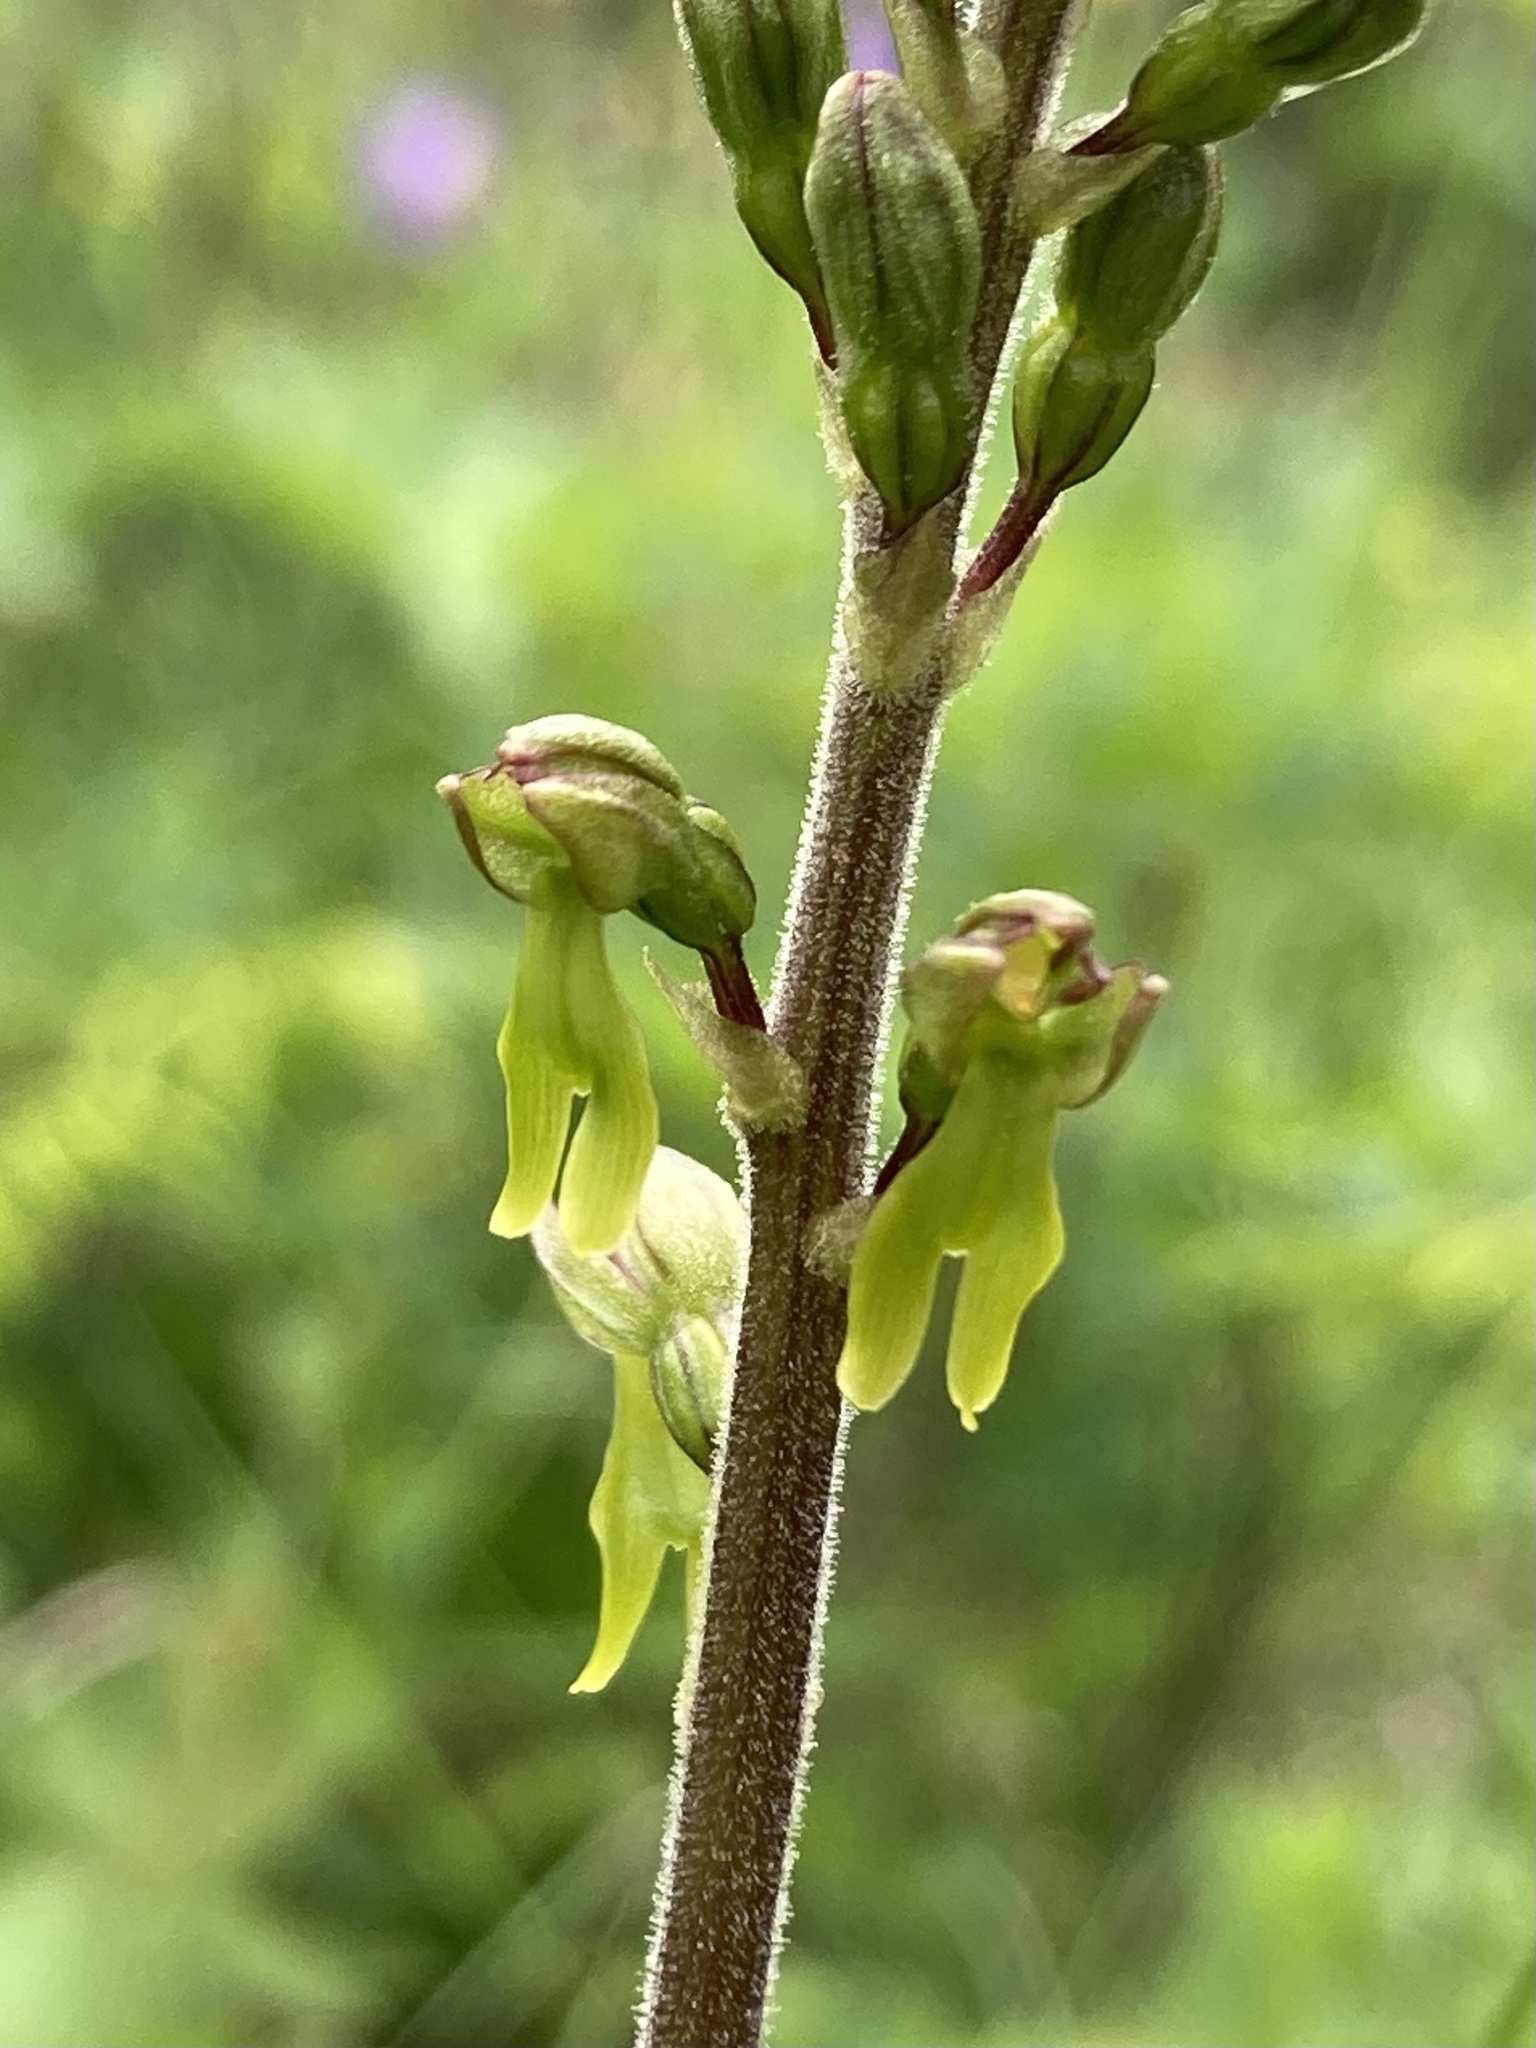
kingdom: Plantae
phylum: Tracheophyta
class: Liliopsida
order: Asparagales
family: Orchidaceae
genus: Neottia
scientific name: Neottia ovata
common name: Common twayblade
